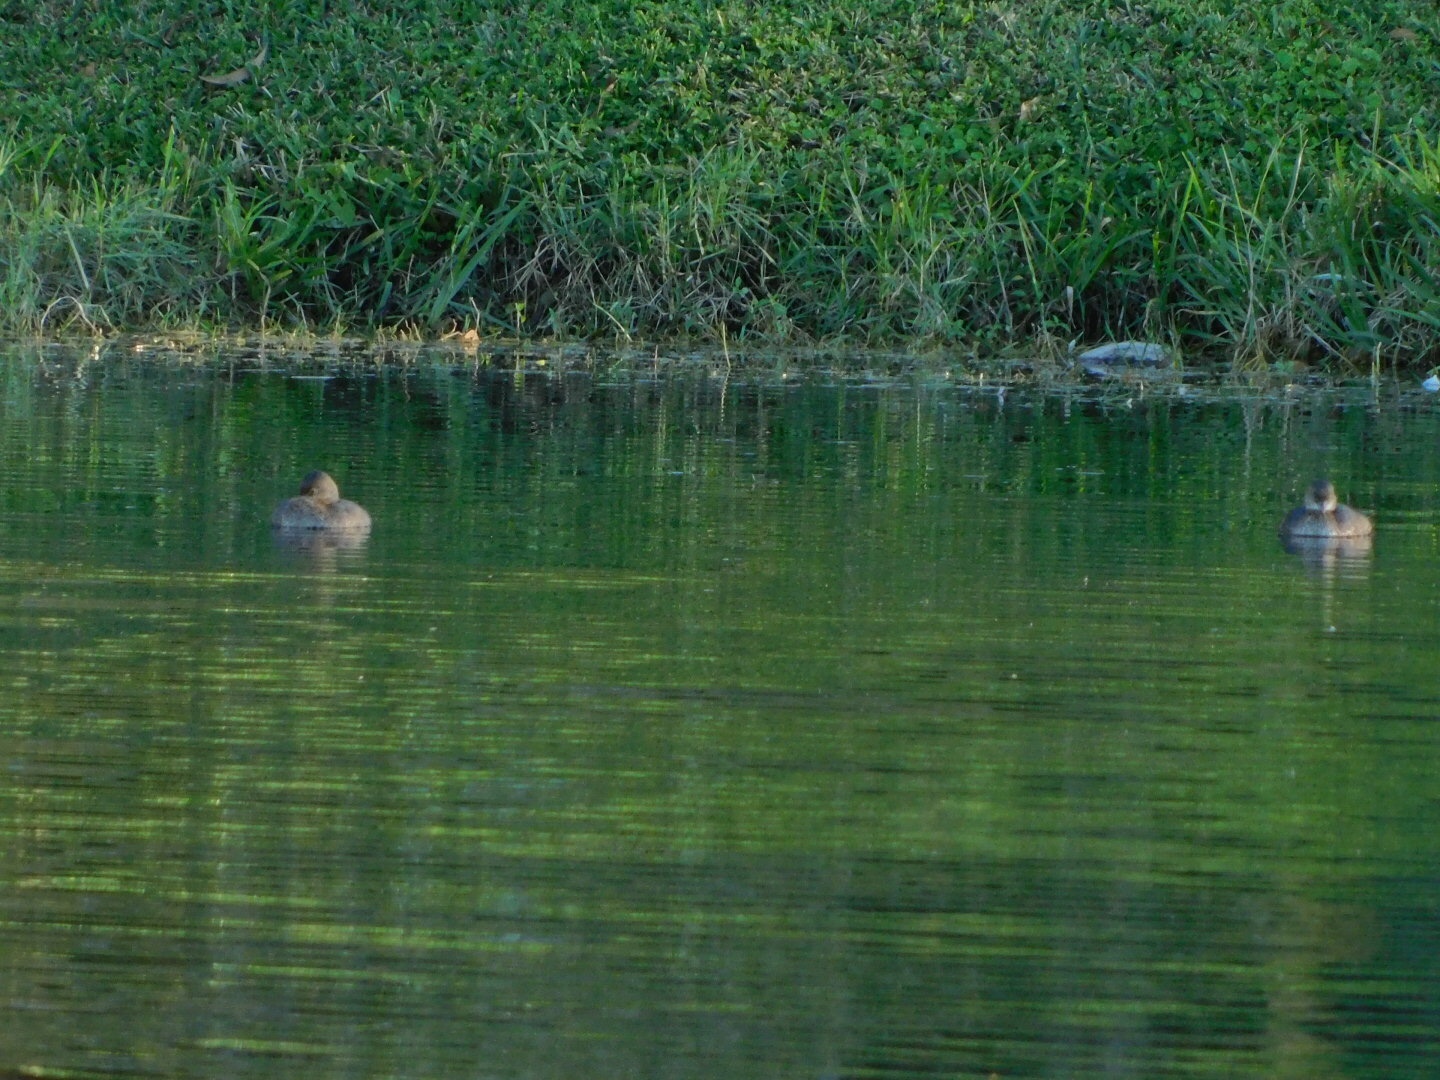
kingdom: Animalia
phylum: Chordata
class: Aves
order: Podicipediformes
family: Podicipedidae
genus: Podilymbus
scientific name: Podilymbus podiceps
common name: Pied-billed grebe
